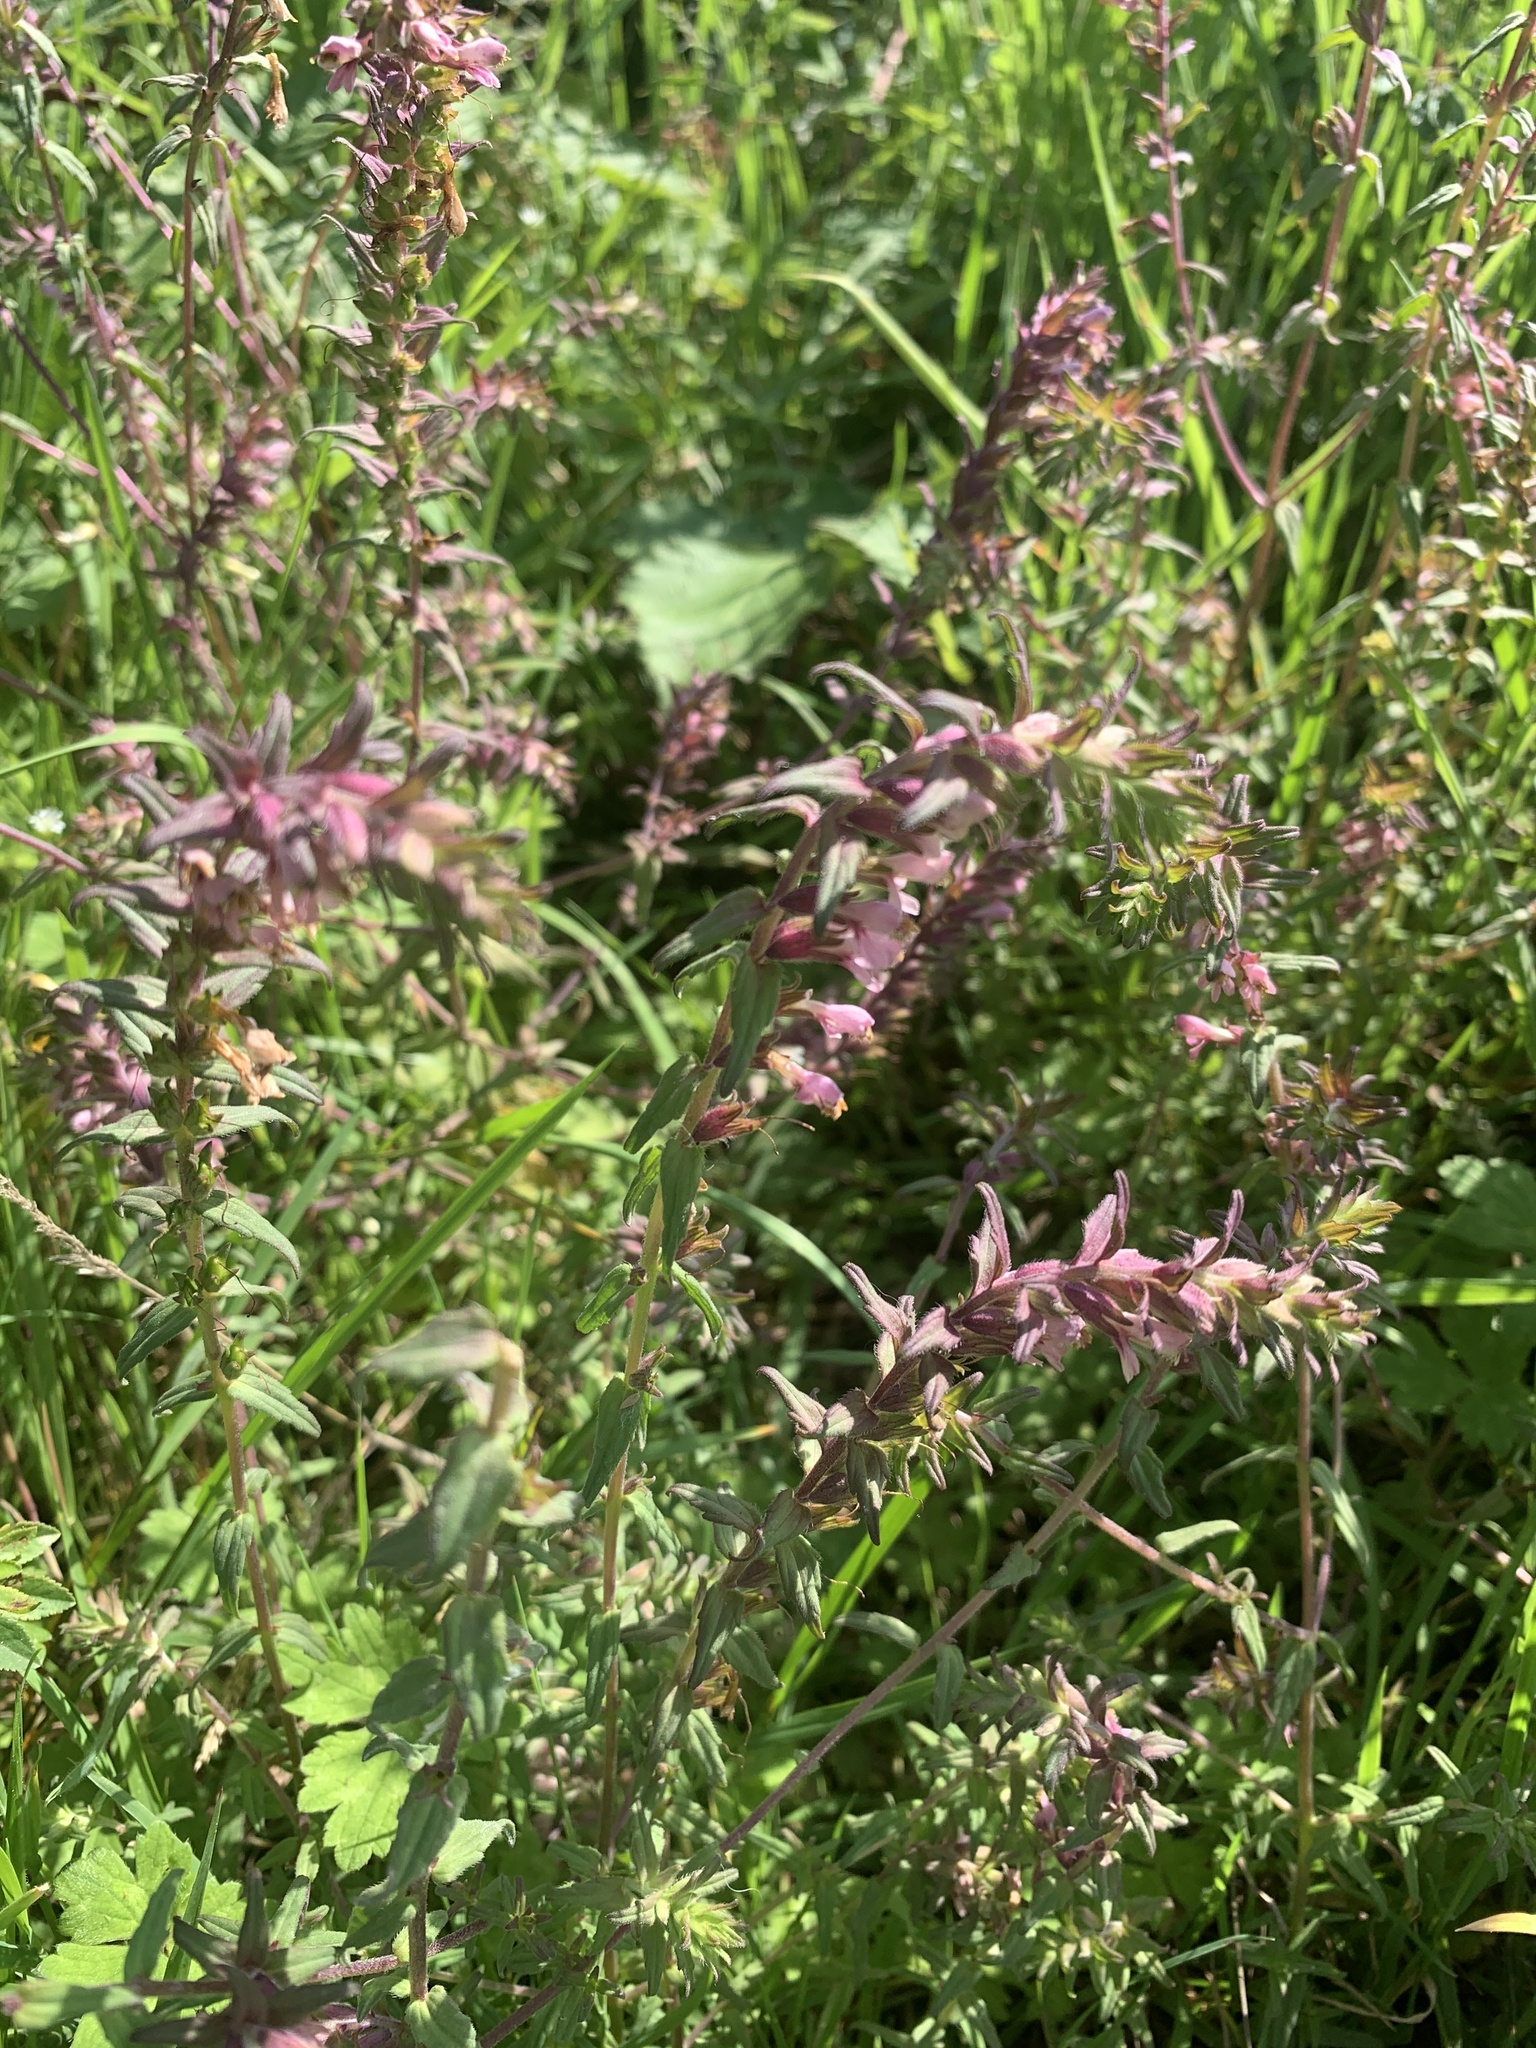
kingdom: Plantae
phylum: Tracheophyta
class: Magnoliopsida
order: Lamiales
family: Orobanchaceae
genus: Odontites
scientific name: Odontites vulgaris
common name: Broomrape
